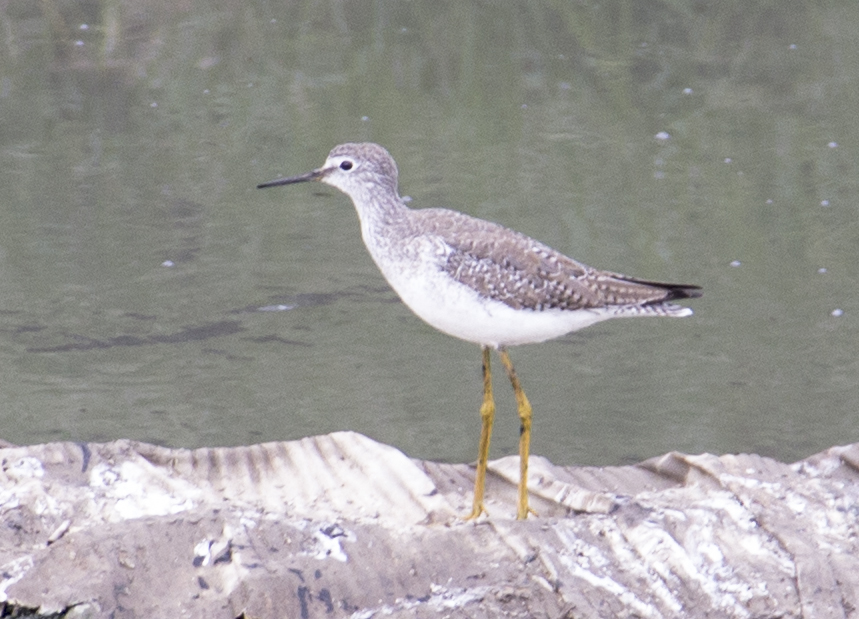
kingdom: Animalia
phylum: Chordata
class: Aves
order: Charadriiformes
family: Scolopacidae
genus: Tringa
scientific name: Tringa flavipes
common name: Lesser yellowlegs
